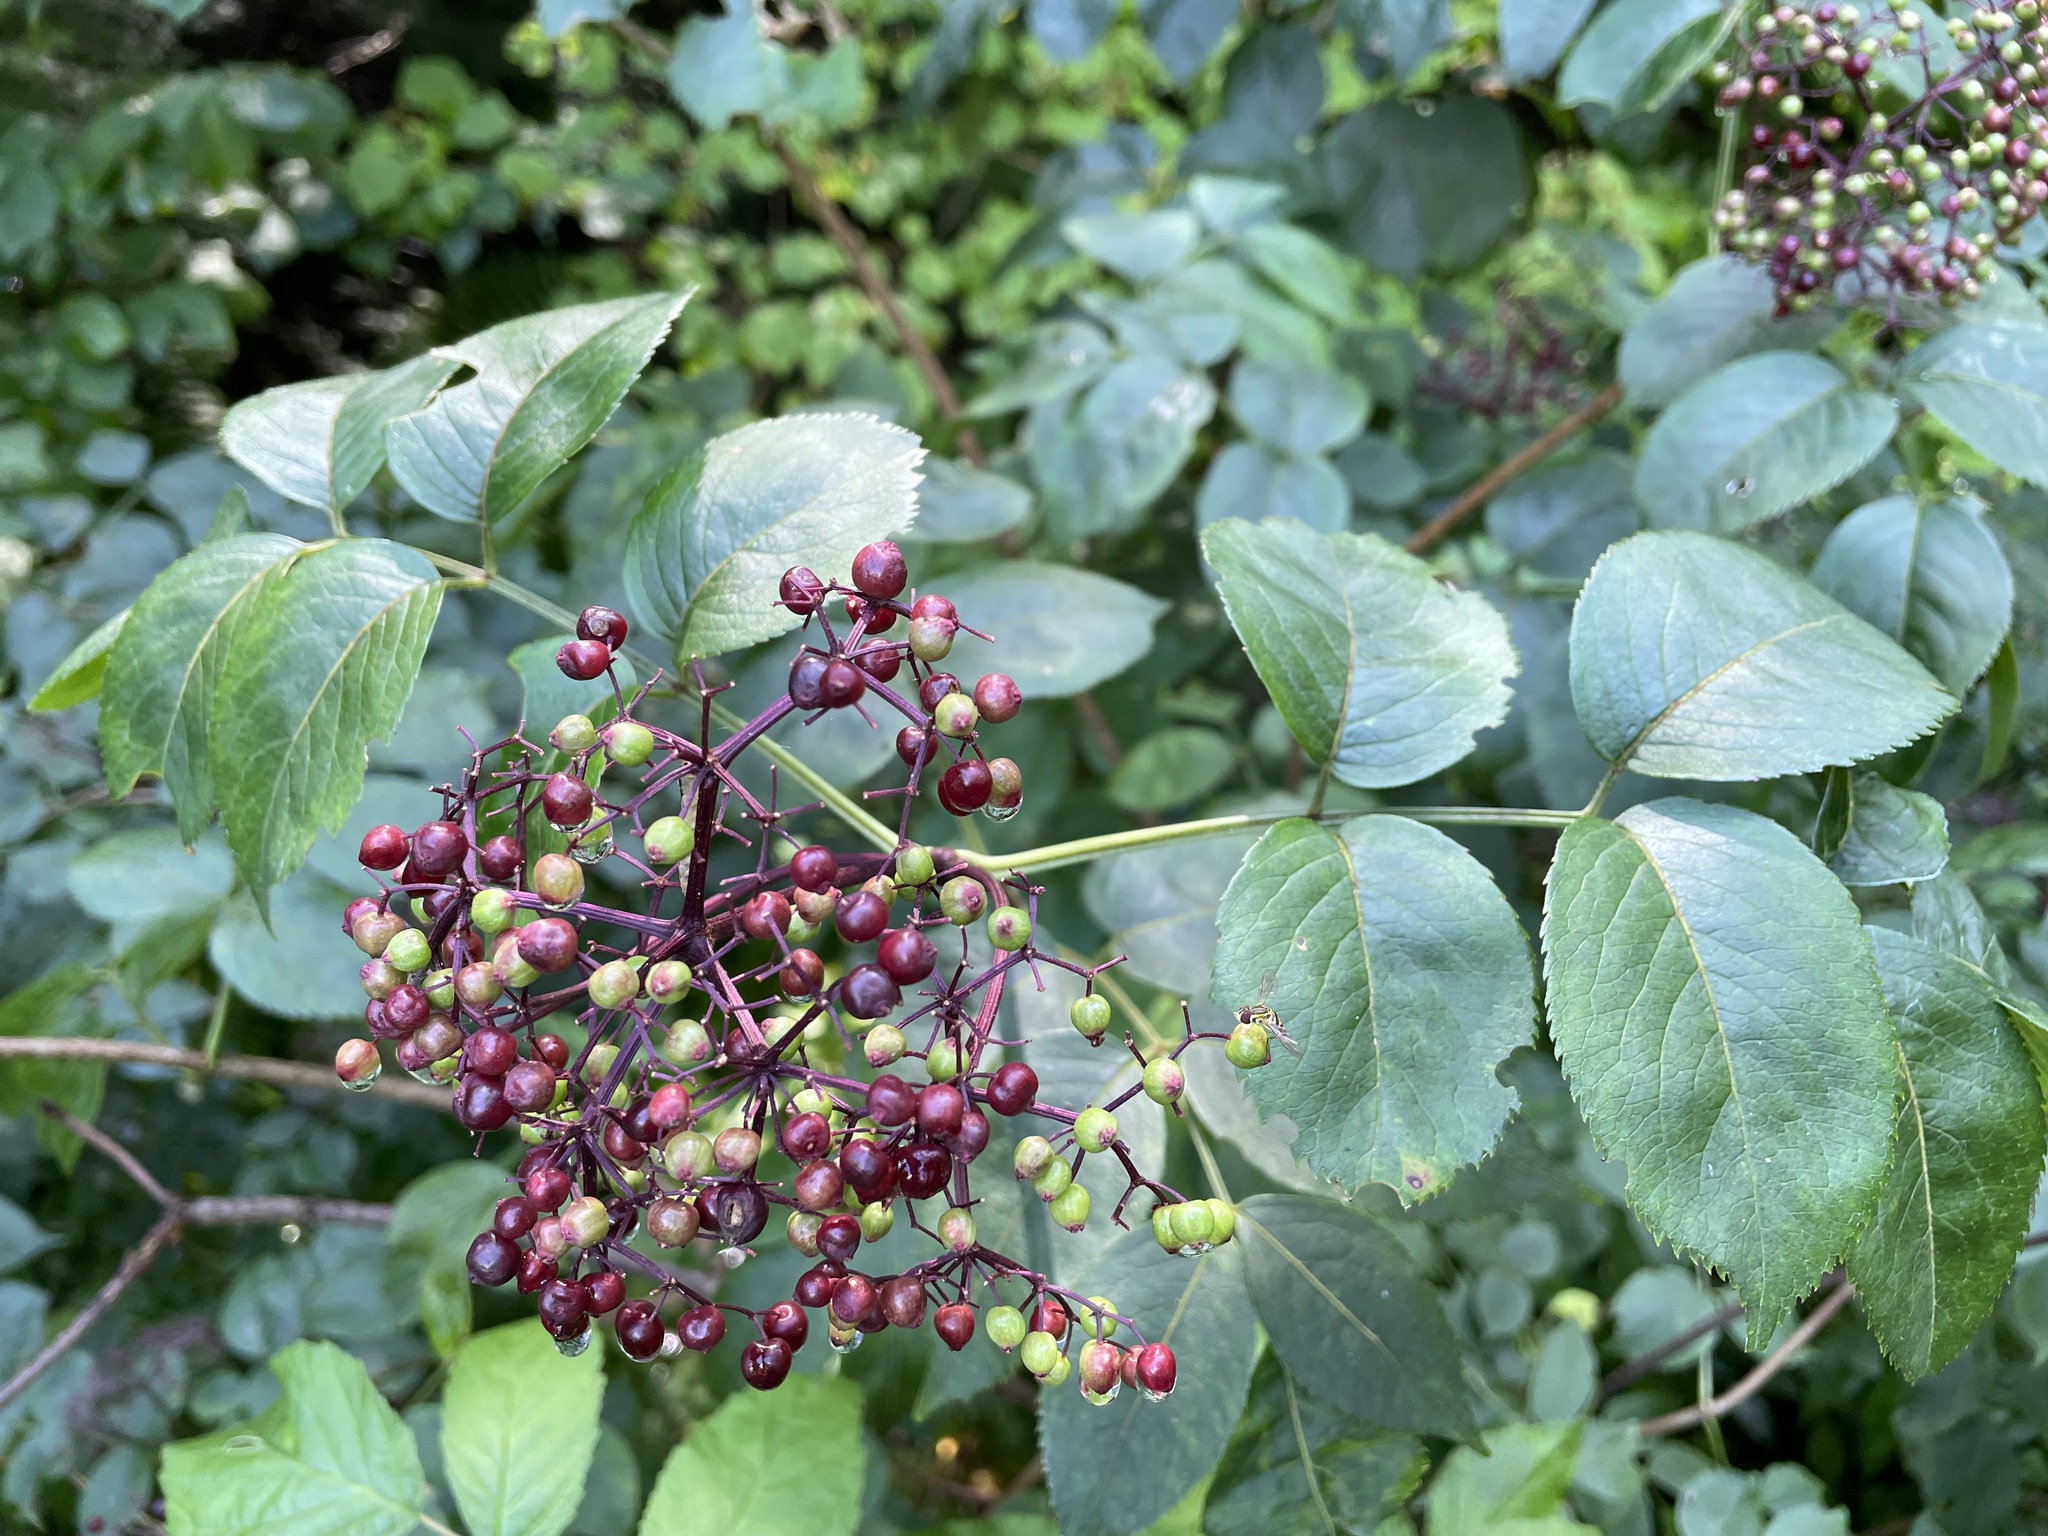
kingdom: Plantae
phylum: Tracheophyta
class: Magnoliopsida
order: Dipsacales
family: Viburnaceae
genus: Sambucus
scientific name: Sambucus canadensis
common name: American elder
